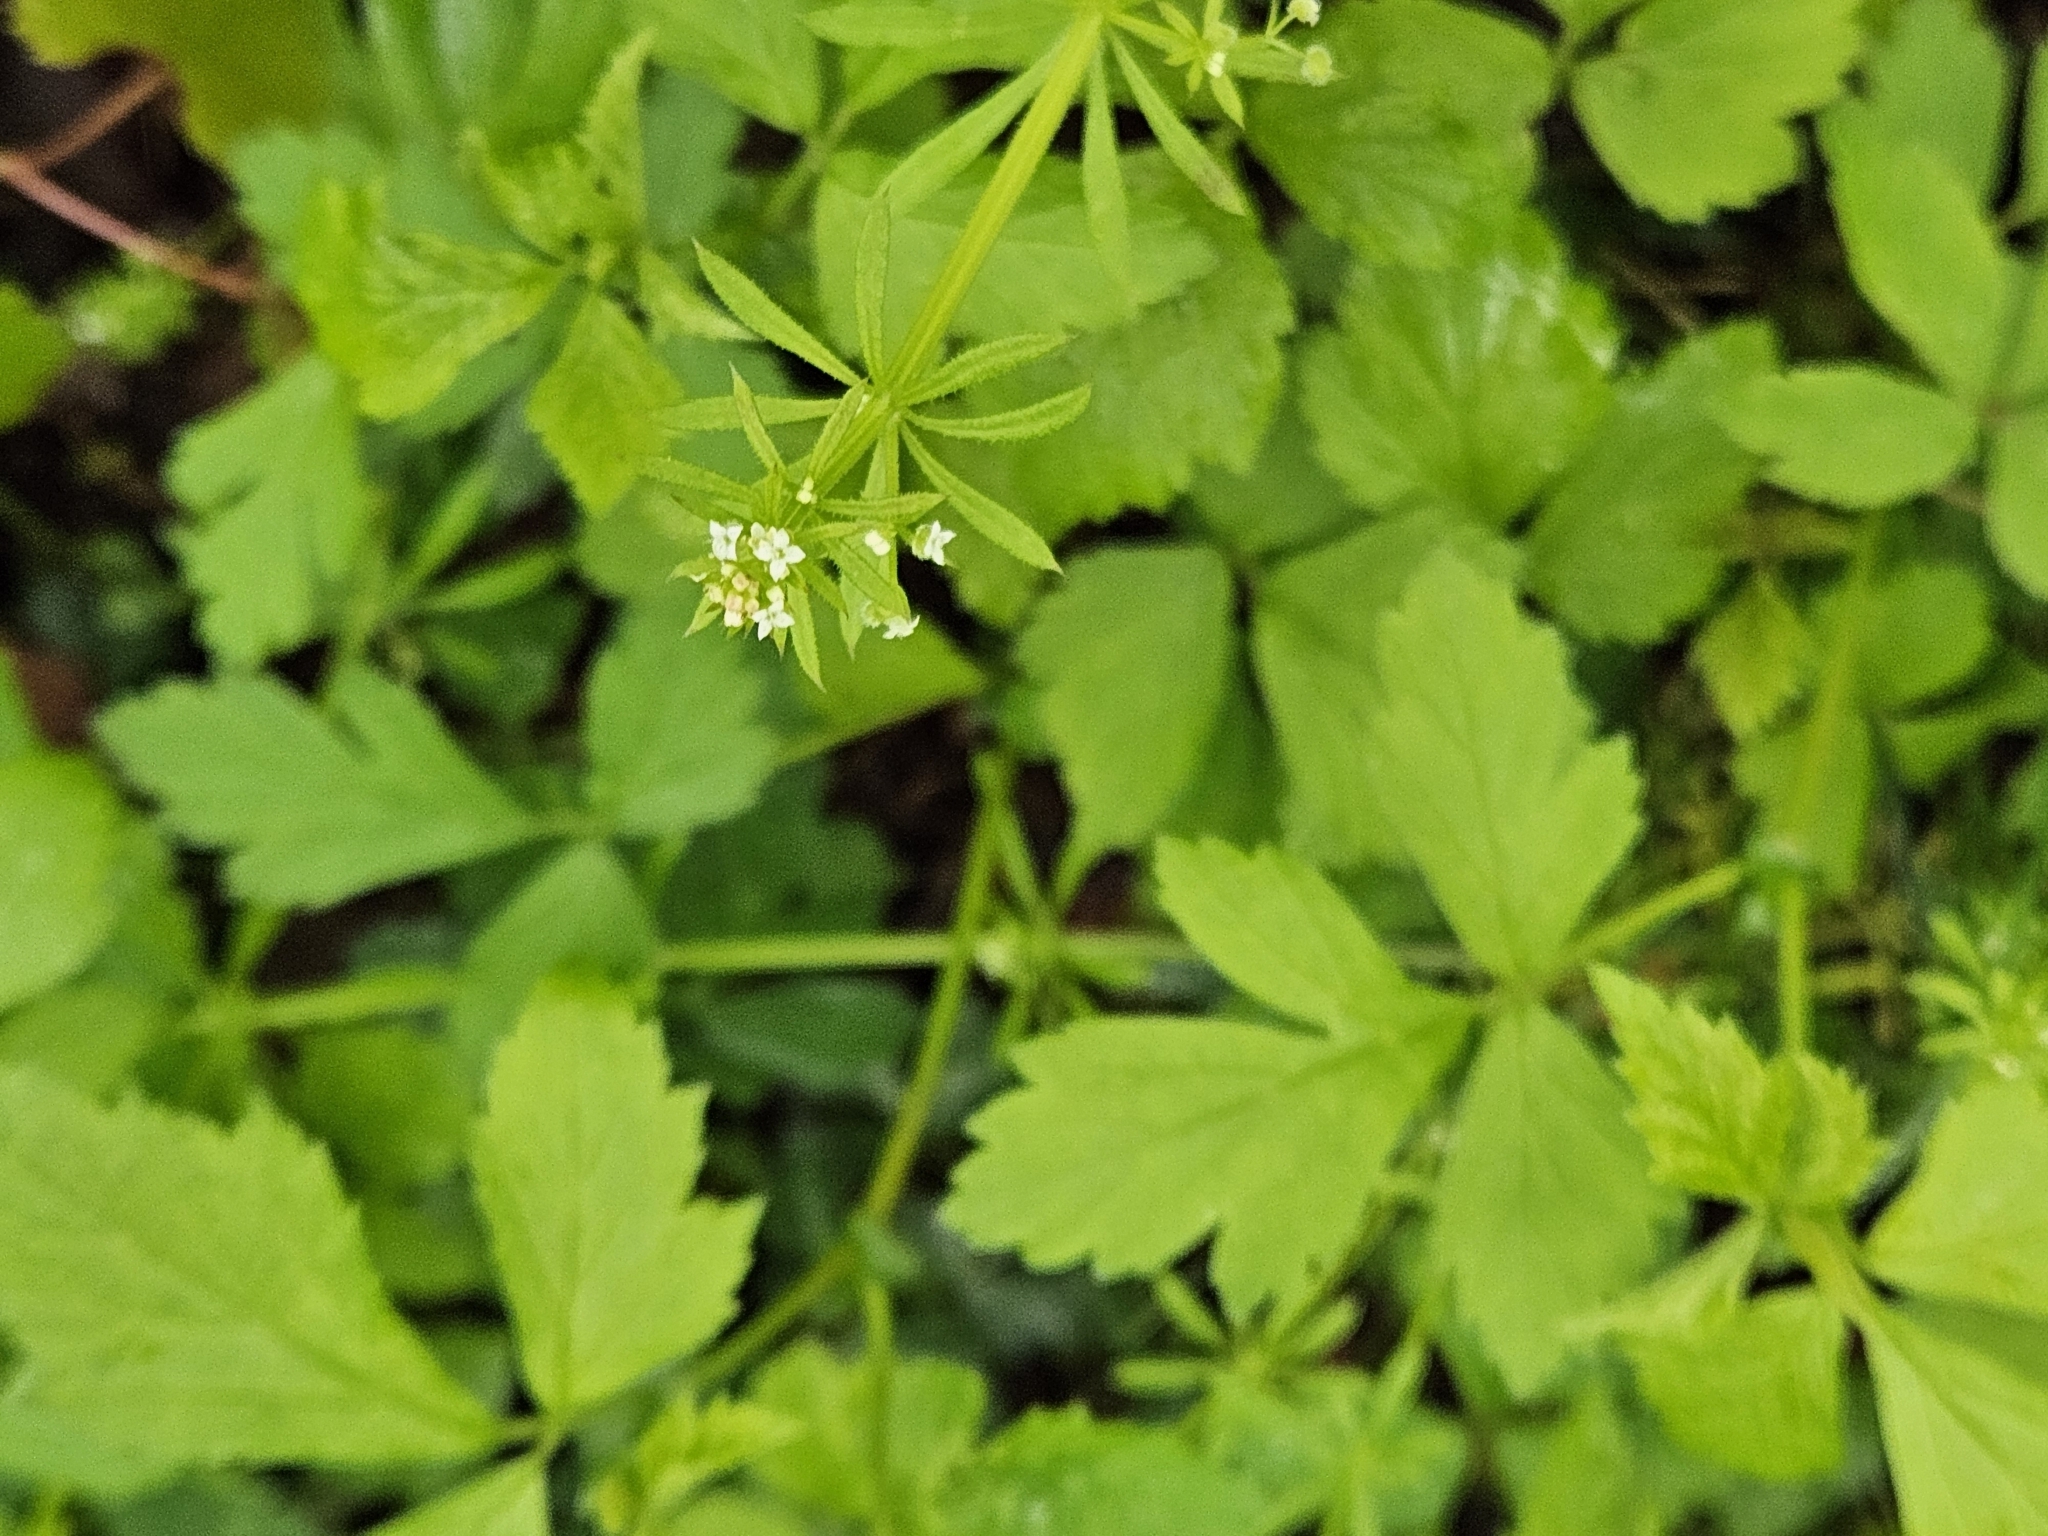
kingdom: Plantae
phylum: Tracheophyta
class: Magnoliopsida
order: Gentianales
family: Rubiaceae
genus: Galium
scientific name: Galium aparine
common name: Cleavers
